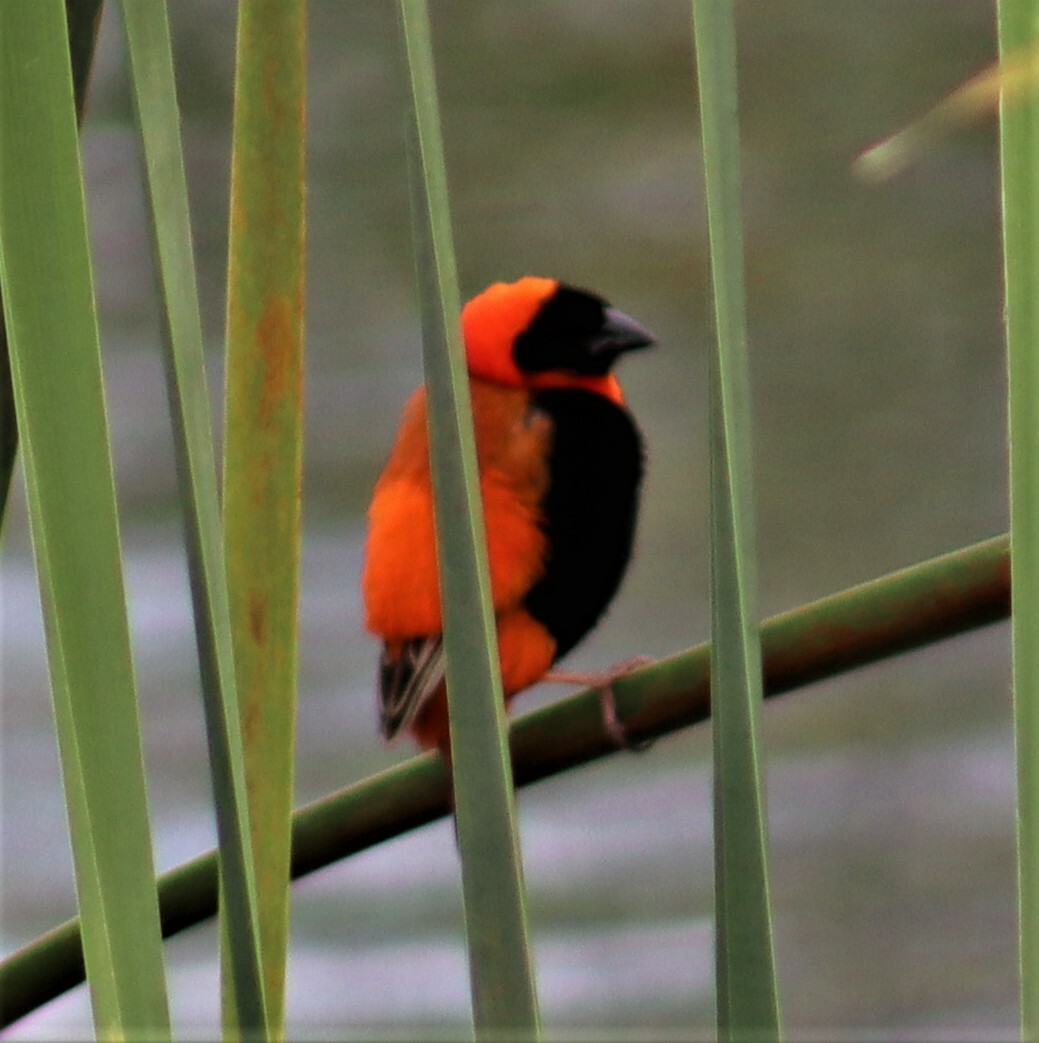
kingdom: Animalia
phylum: Chordata
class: Aves
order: Passeriformes
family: Ploceidae
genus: Euplectes
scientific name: Euplectes orix
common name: Southern red bishop
